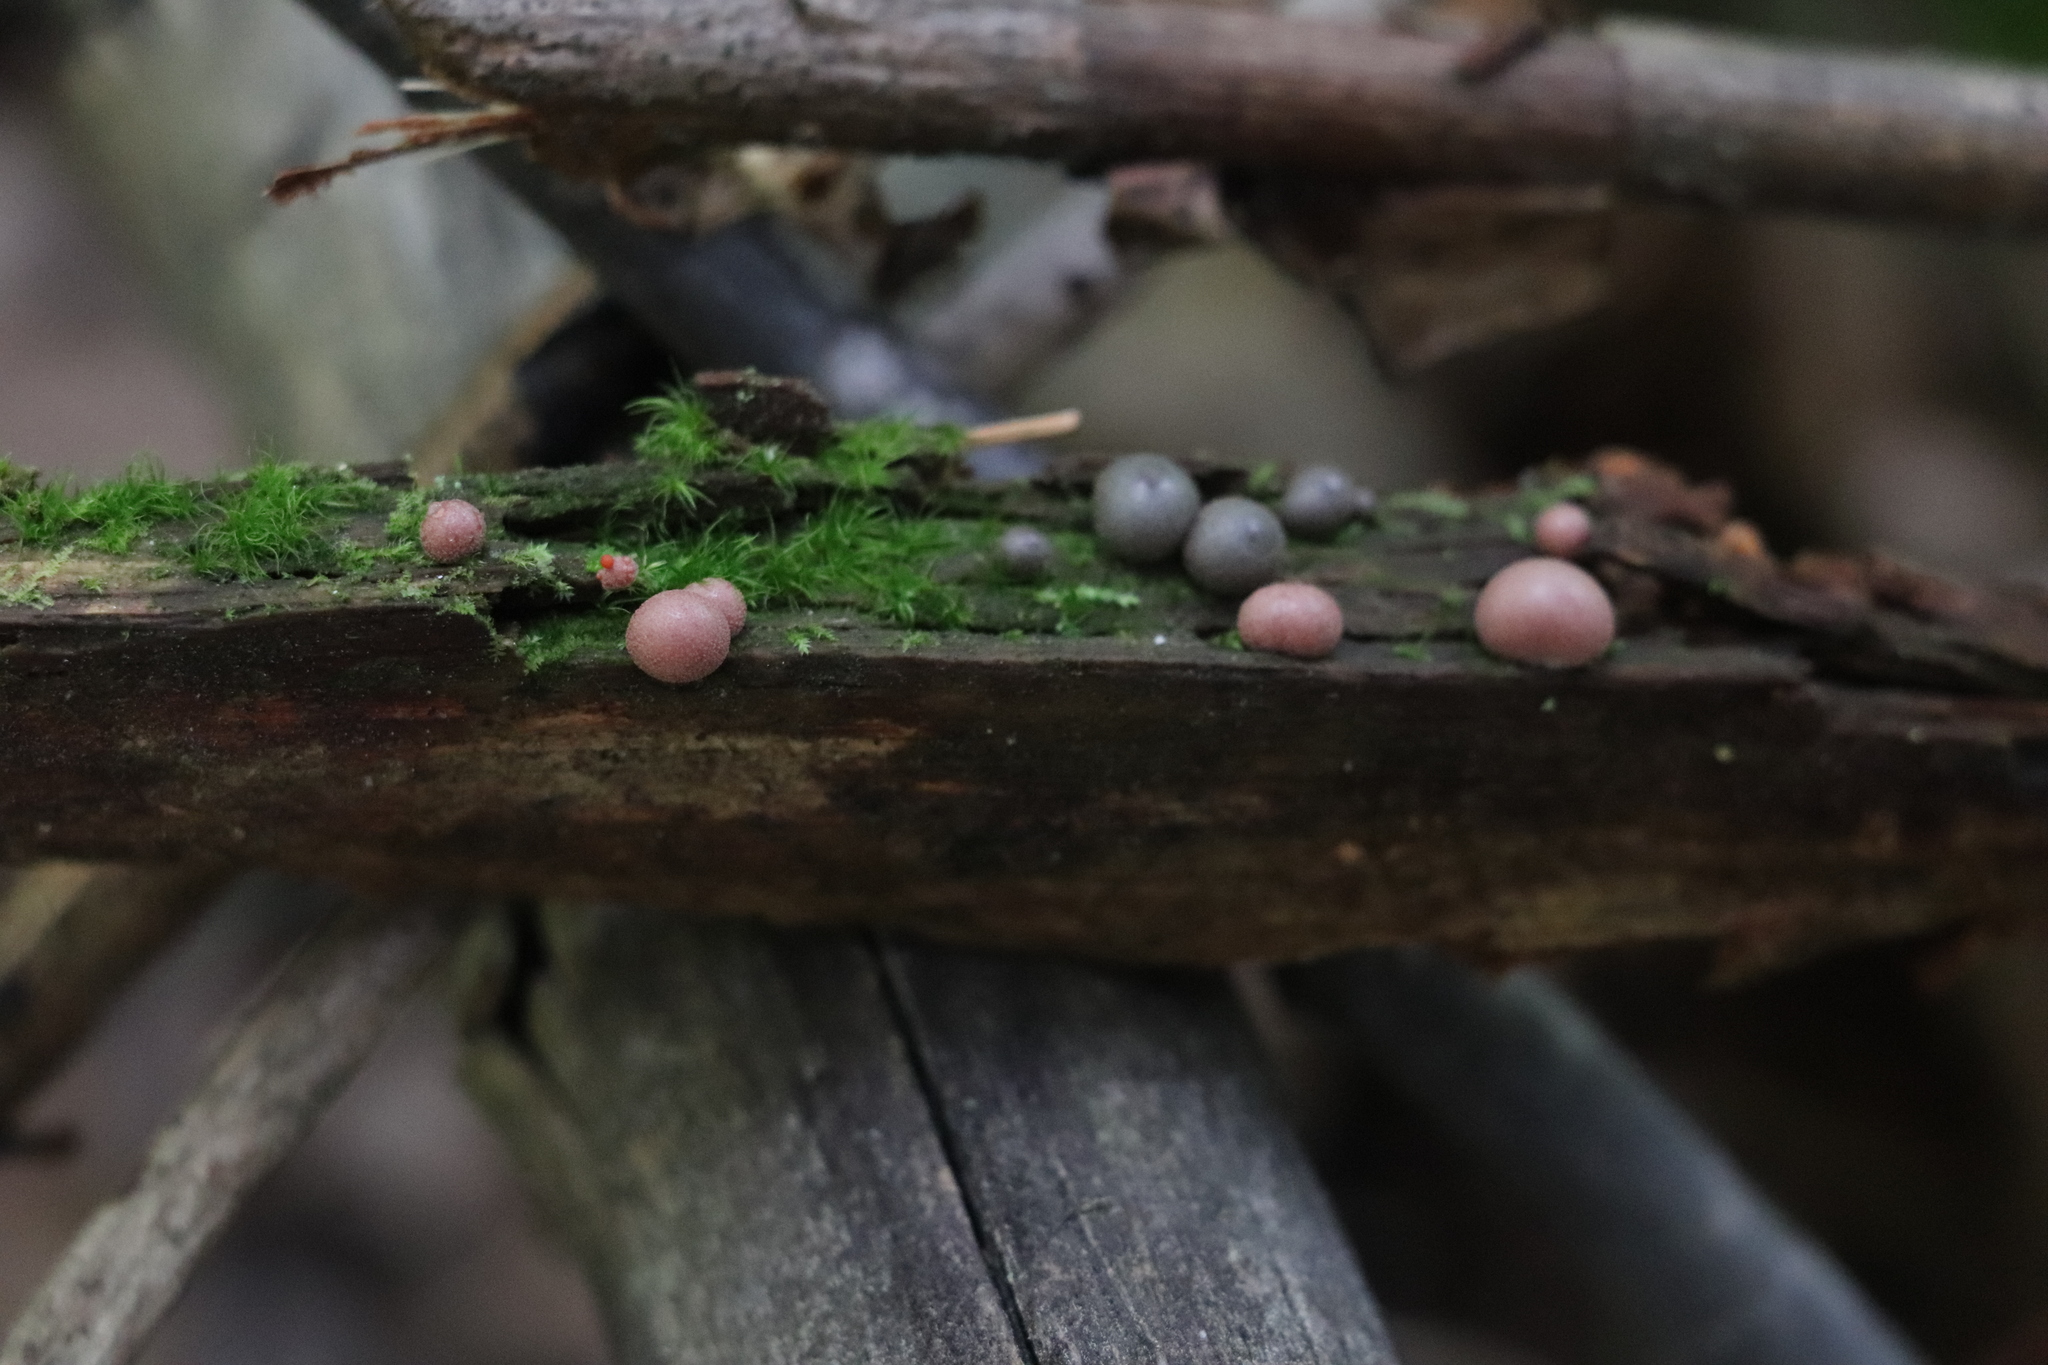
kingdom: Protozoa
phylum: Mycetozoa
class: Myxomycetes
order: Cribrariales
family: Tubiferaceae
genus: Lycogala
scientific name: Lycogala epidendrum
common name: Wolf's milk
